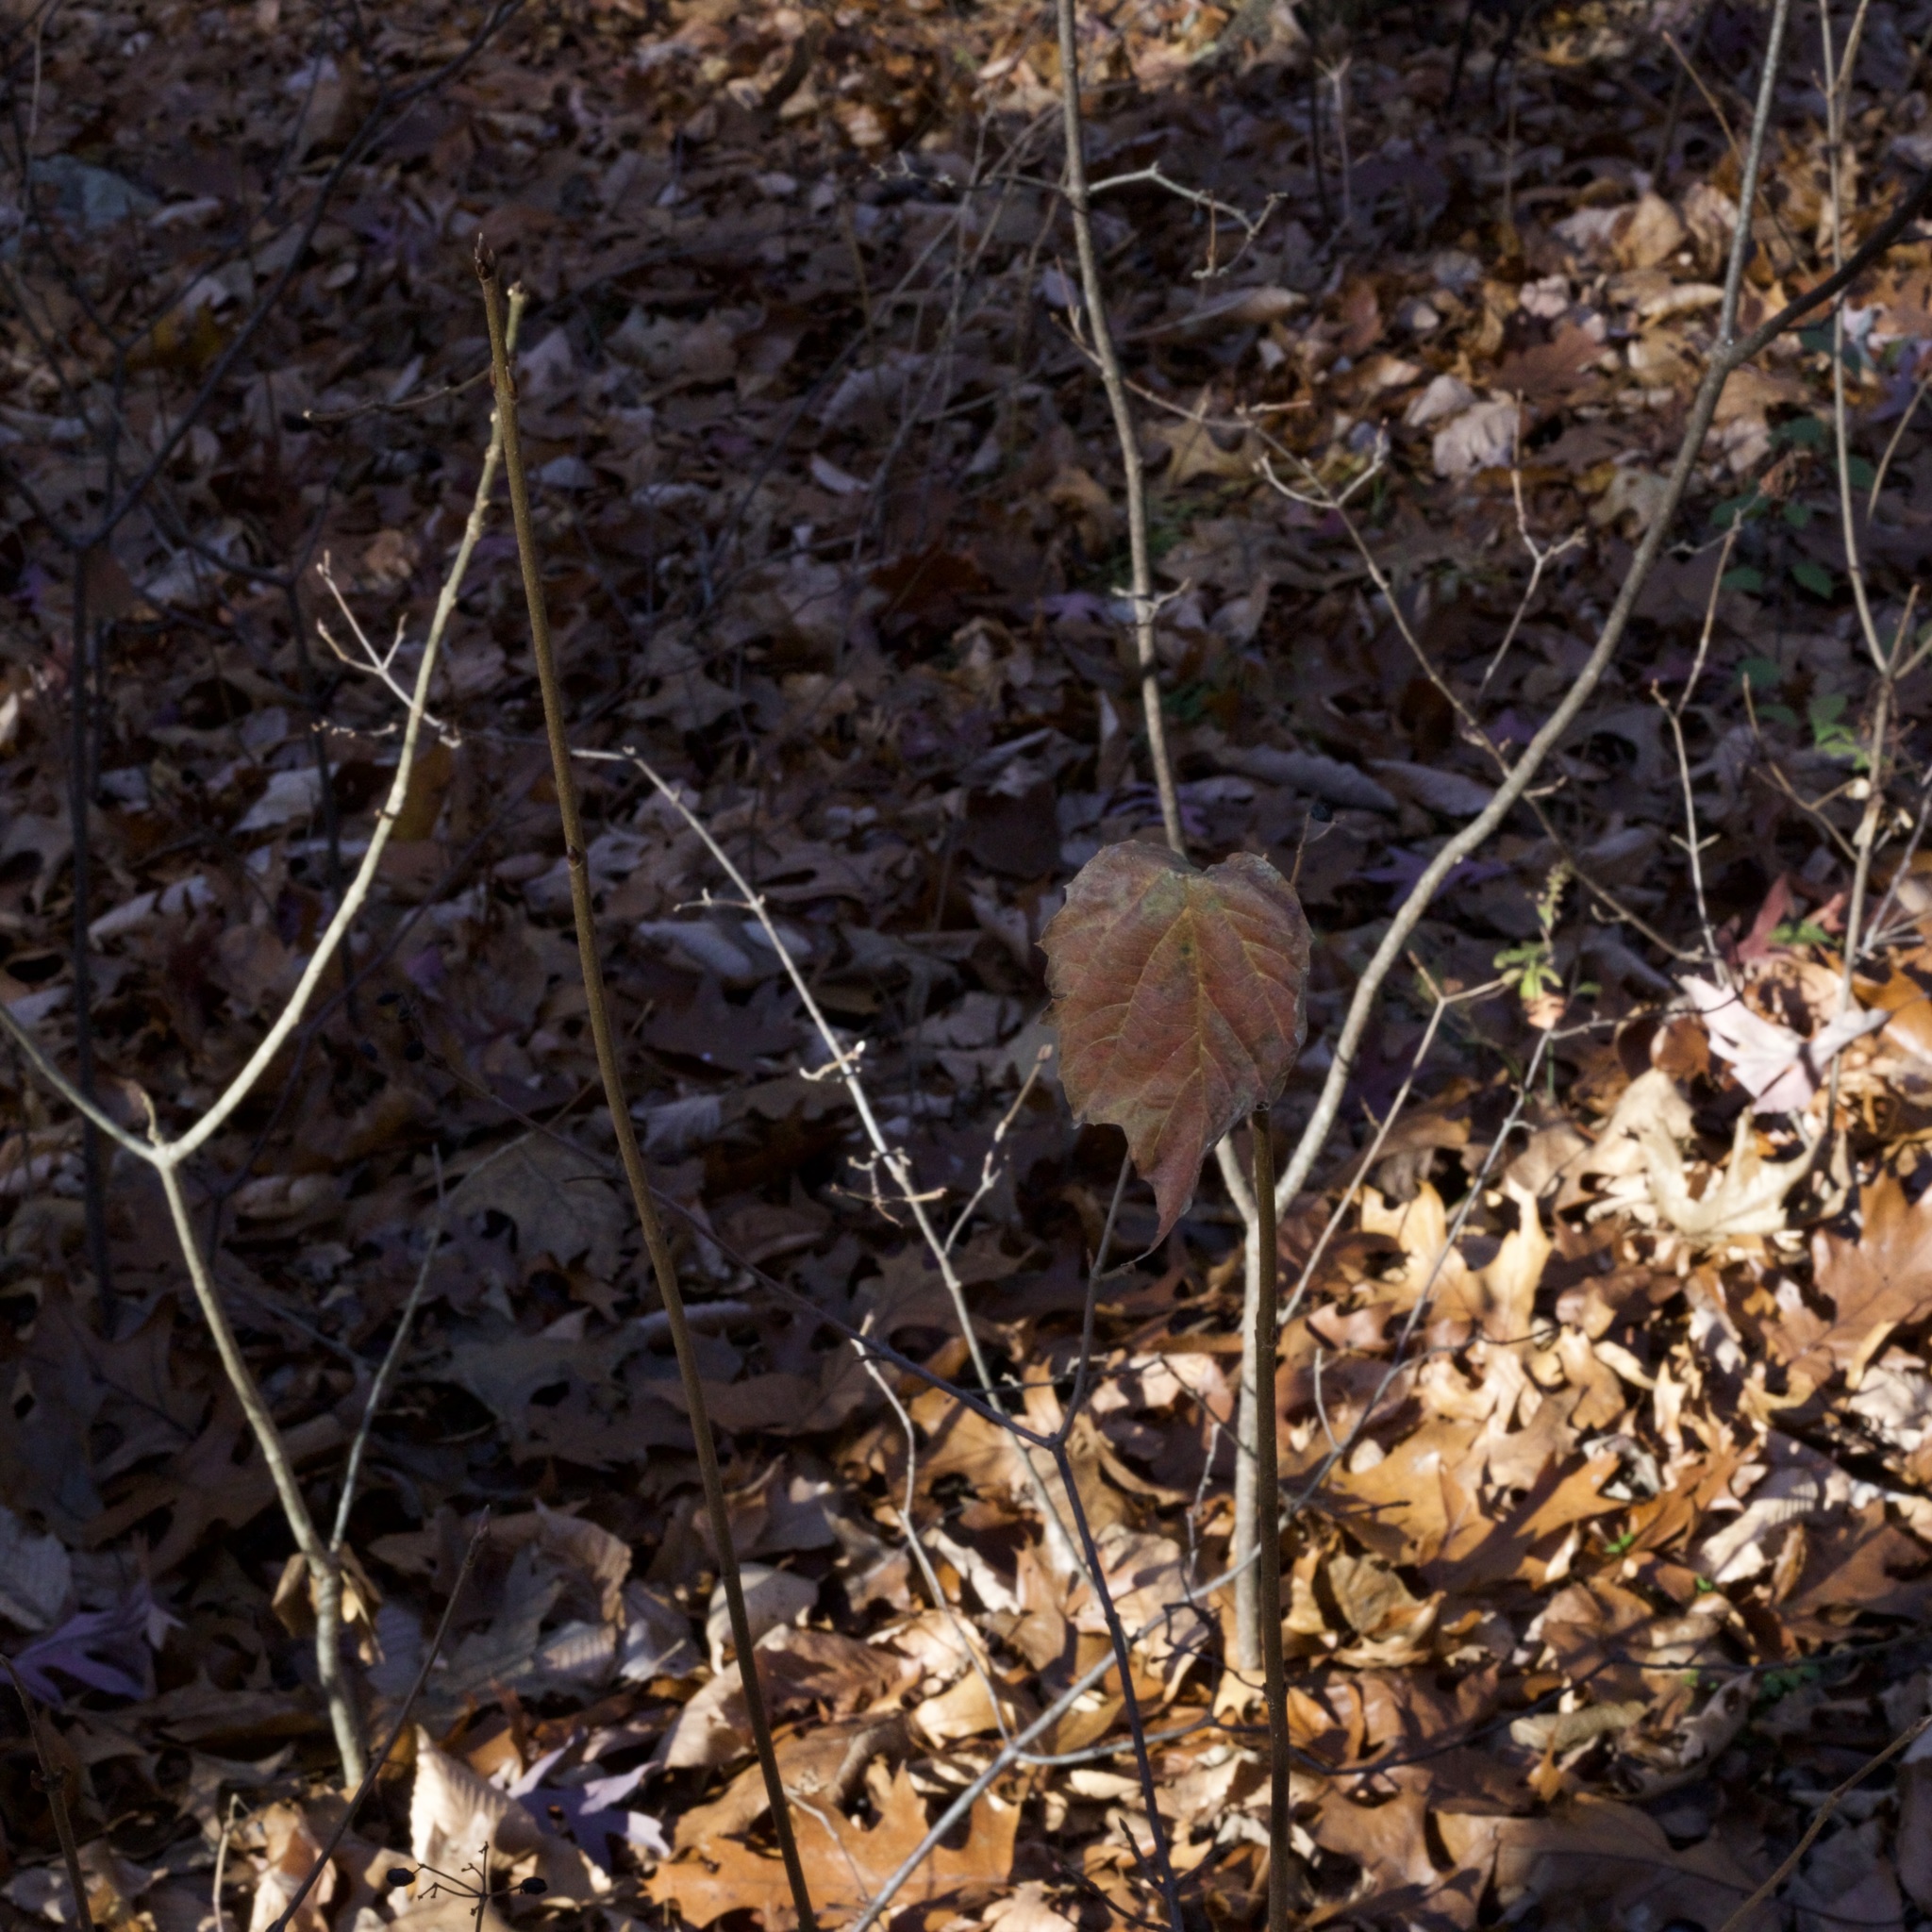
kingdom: Plantae
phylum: Tracheophyta
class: Magnoliopsida
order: Dipsacales
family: Viburnaceae
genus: Viburnum
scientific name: Viburnum acerifolium
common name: Dockmackie
